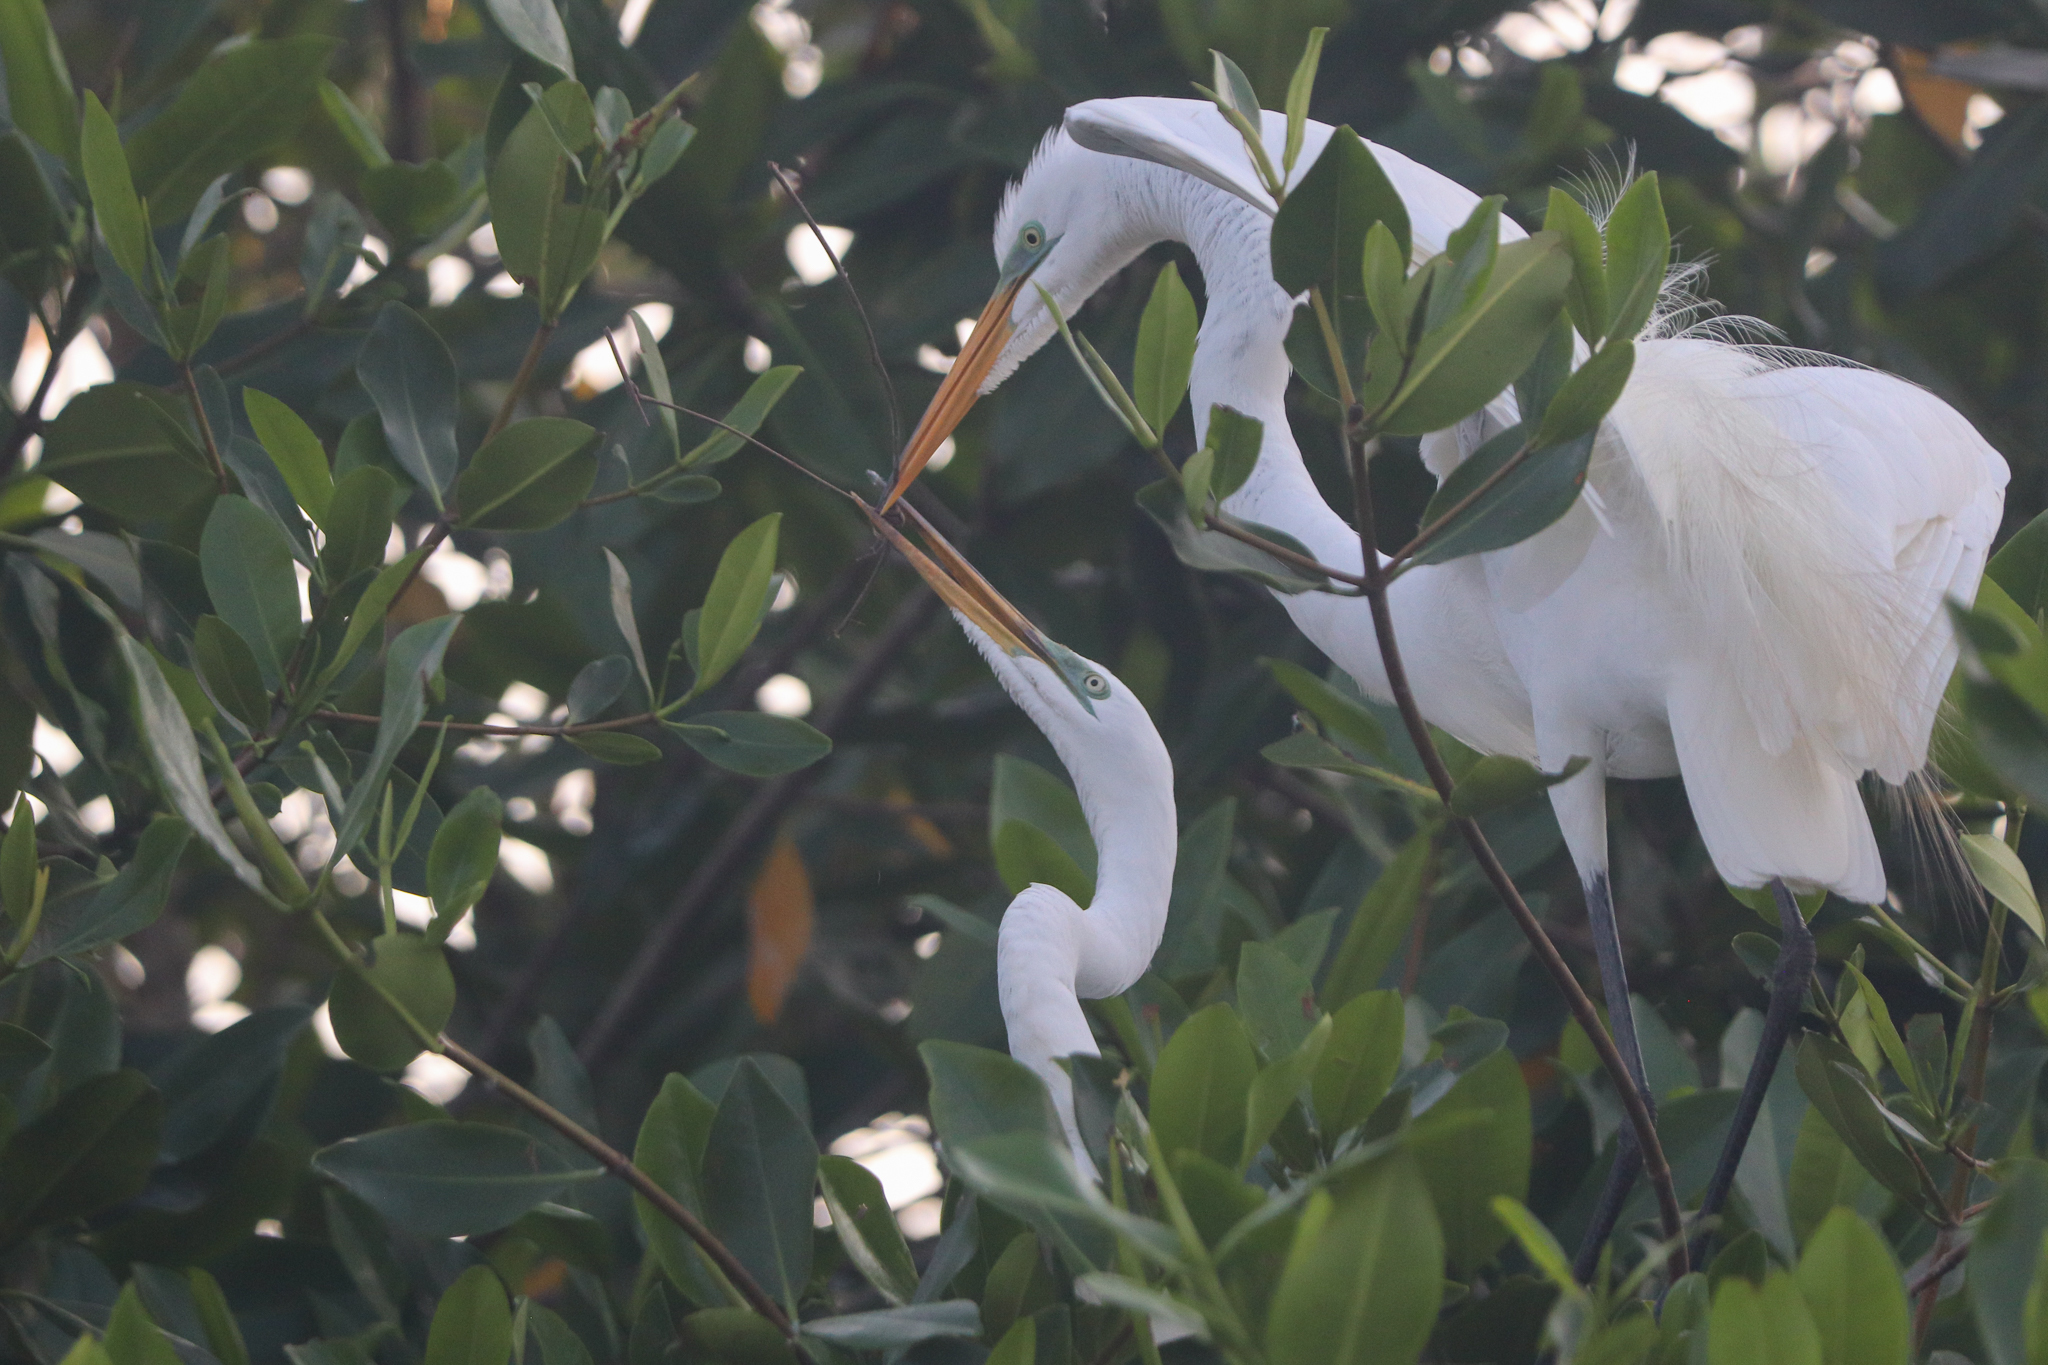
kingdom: Animalia
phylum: Chordata
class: Aves
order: Pelecaniformes
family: Ardeidae
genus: Ardea
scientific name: Ardea alba
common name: Great egret
